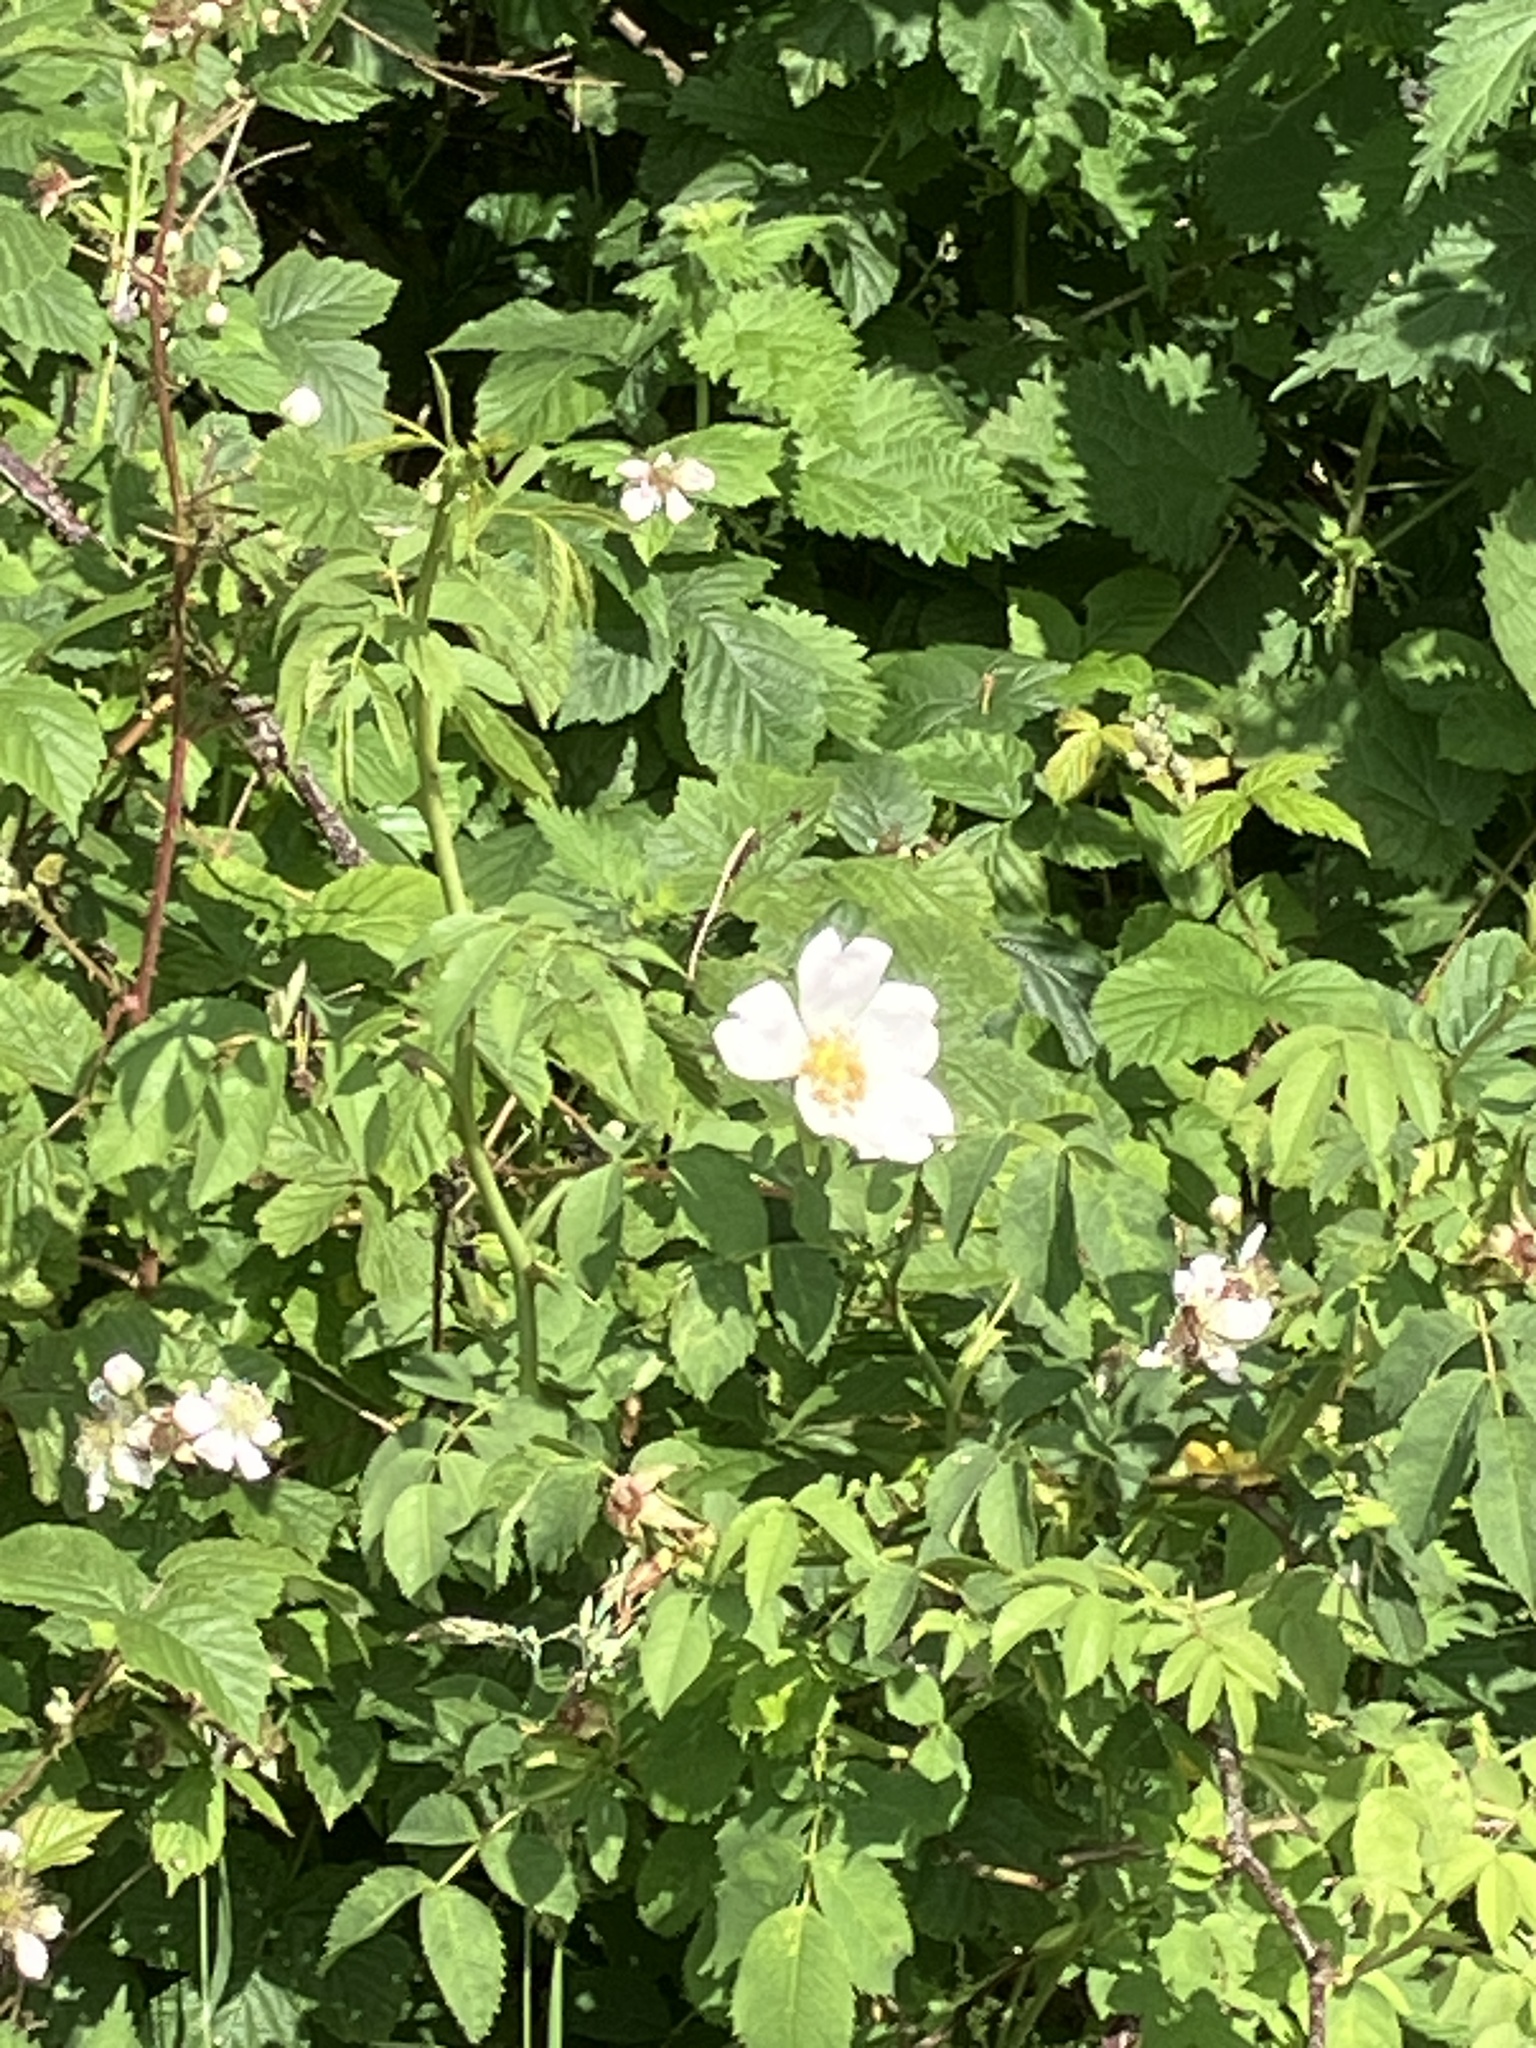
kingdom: Plantae
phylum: Tracheophyta
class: Magnoliopsida
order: Rosales
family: Rosaceae
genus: Rosa
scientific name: Rosa canina
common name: Dog rose
